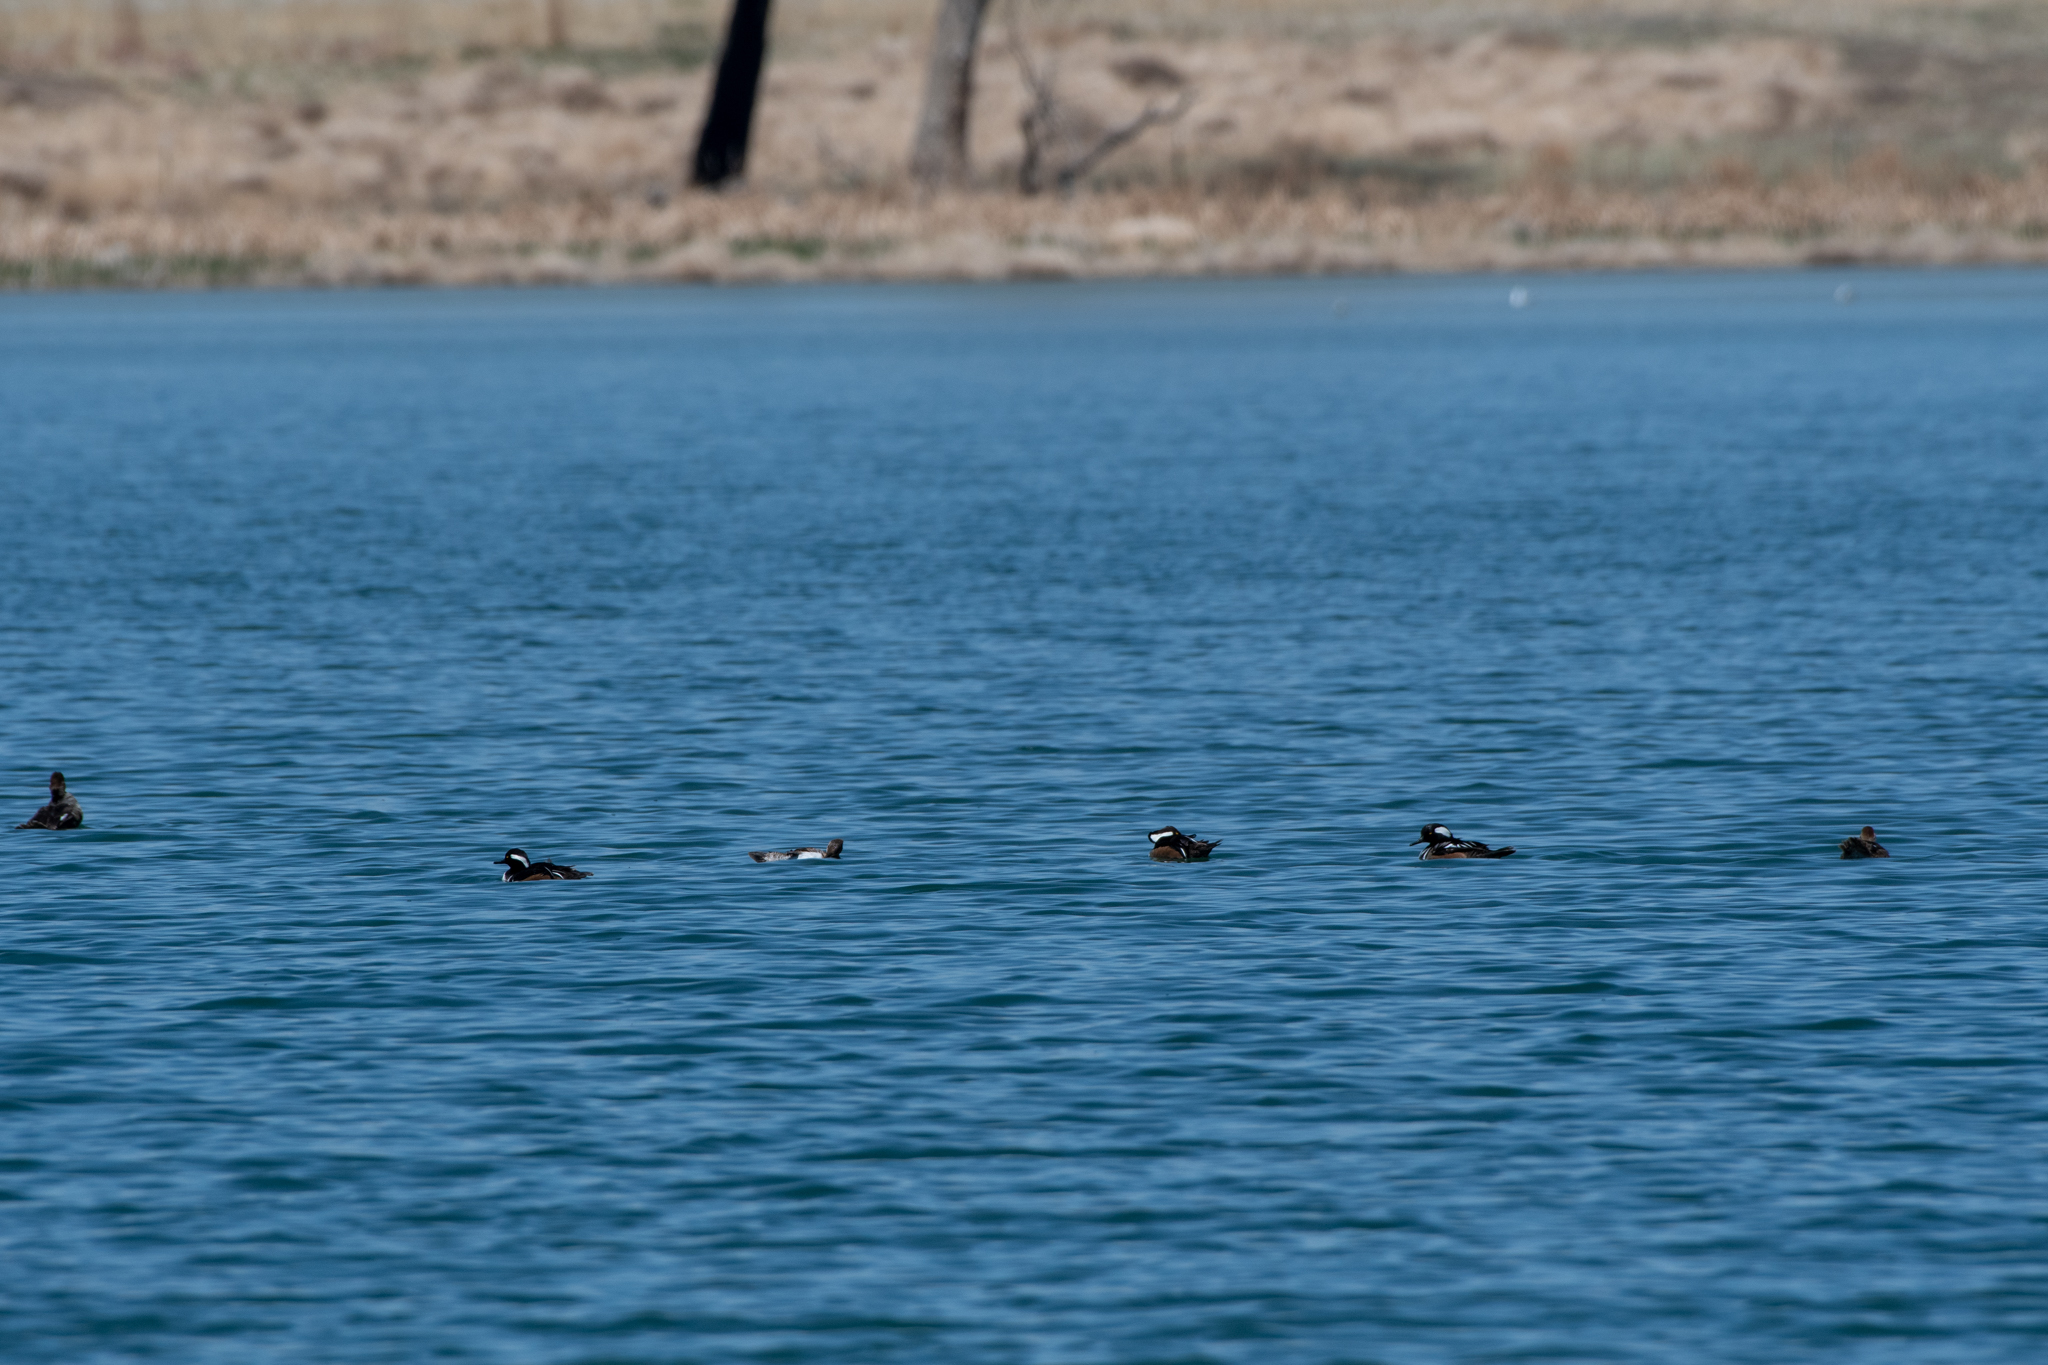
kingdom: Animalia
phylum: Chordata
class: Aves
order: Anseriformes
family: Anatidae
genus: Lophodytes
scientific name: Lophodytes cucullatus
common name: Hooded merganser
